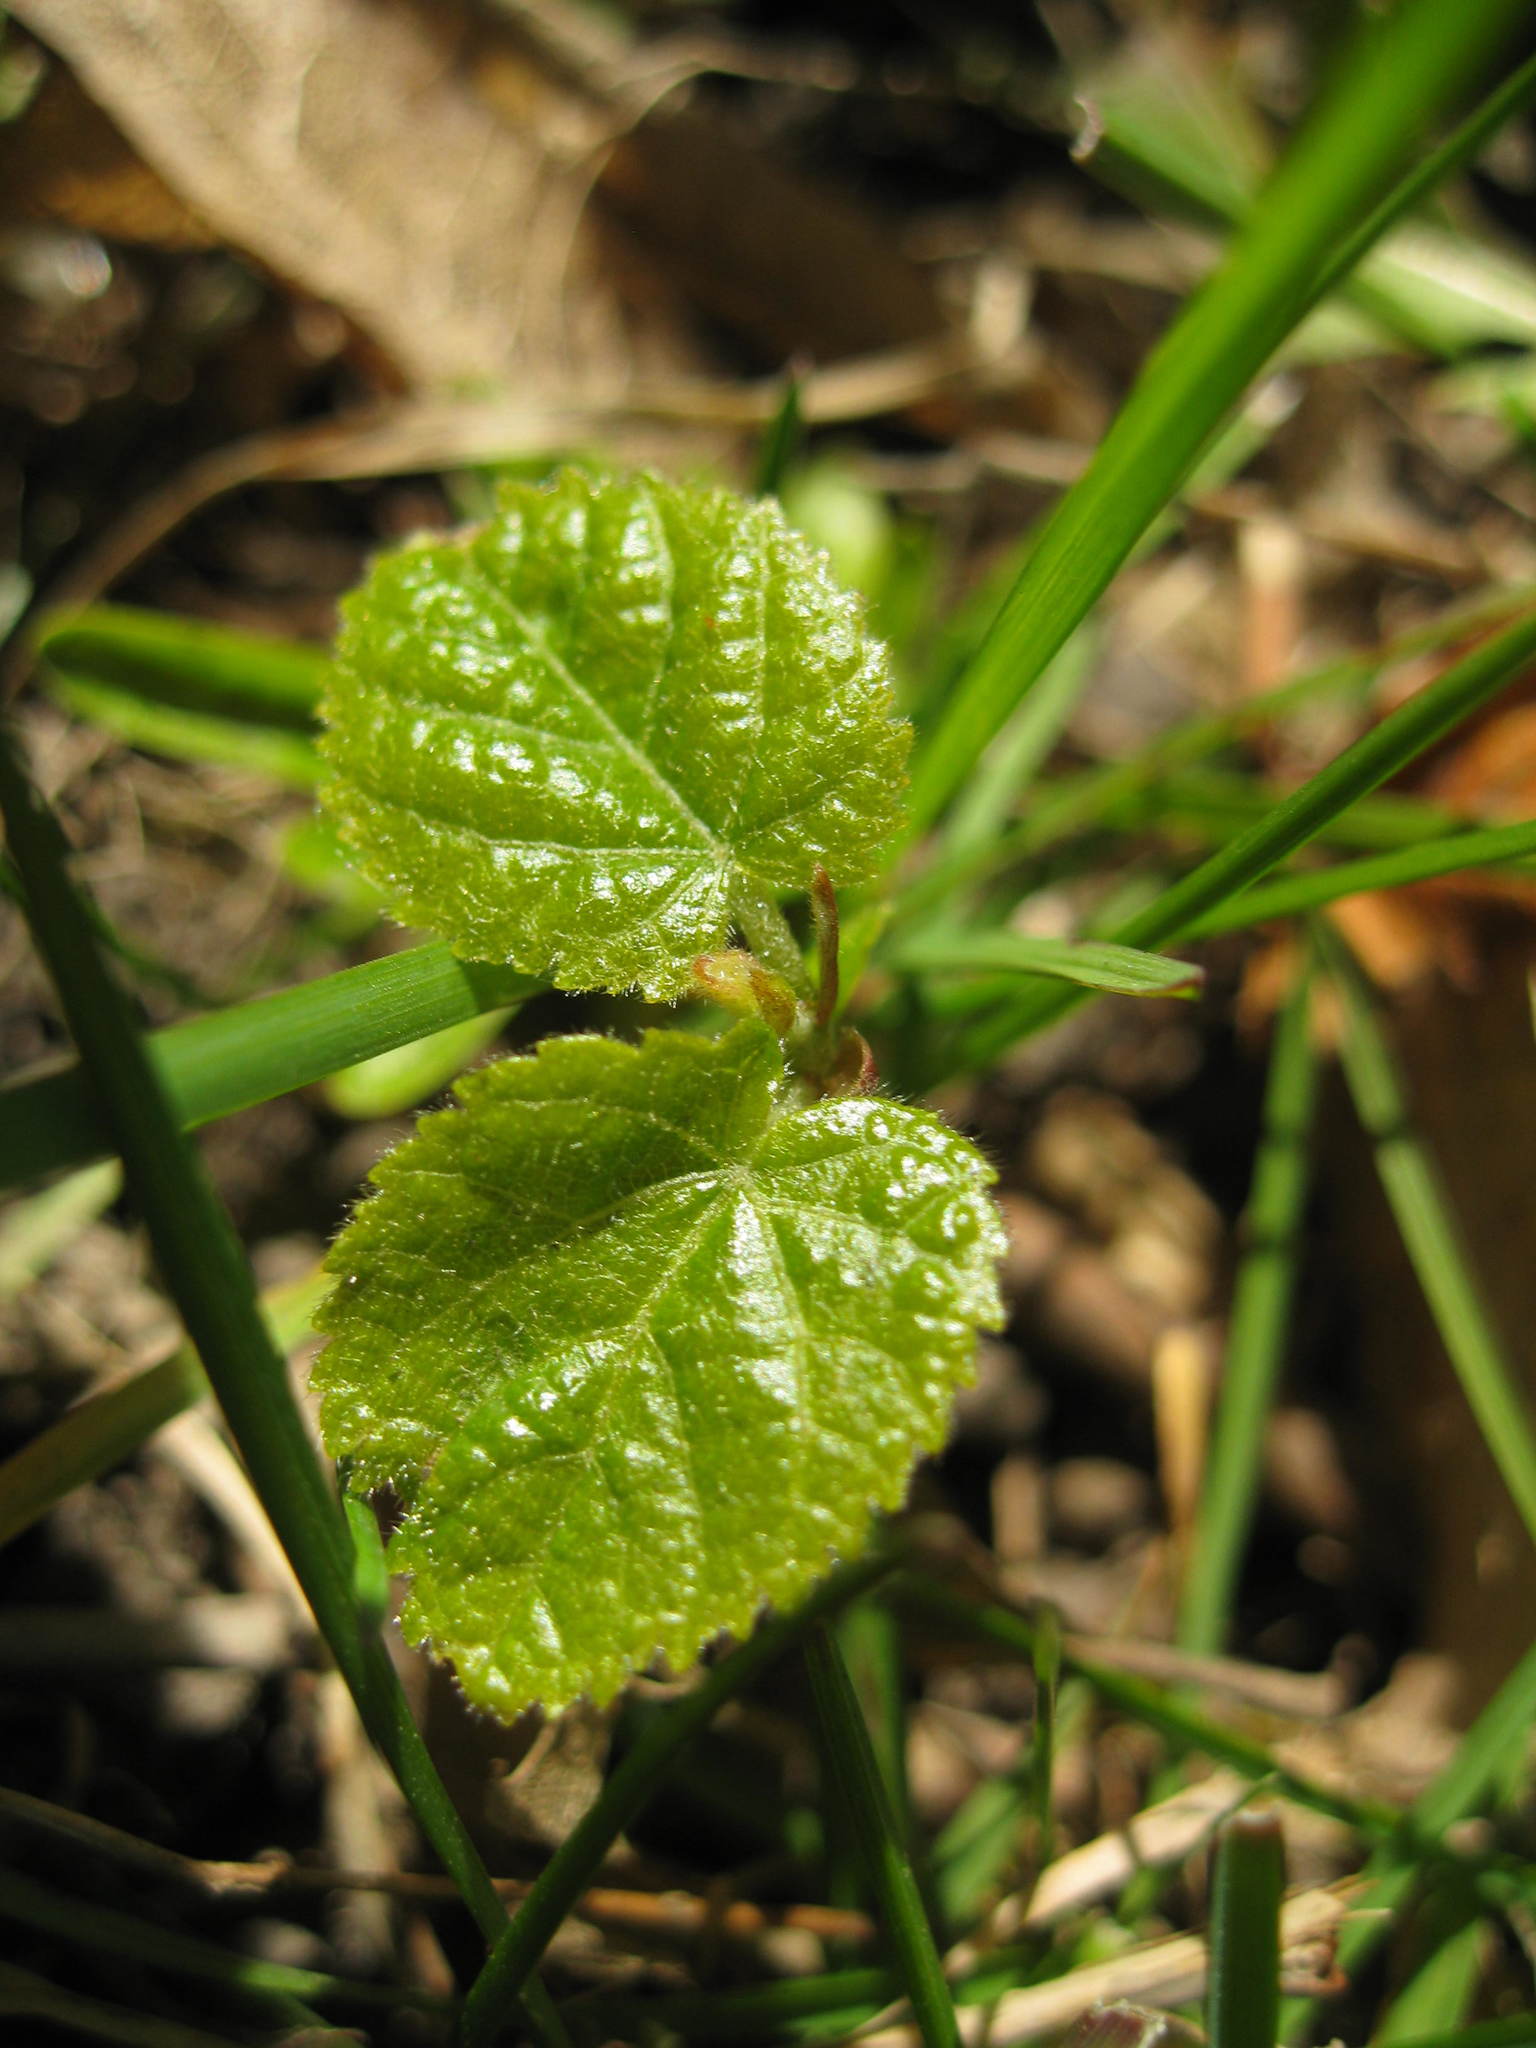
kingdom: Plantae
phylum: Tracheophyta
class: Magnoliopsida
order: Malvales
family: Malvaceae
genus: Tilia
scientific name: Tilia americana
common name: Basswood
